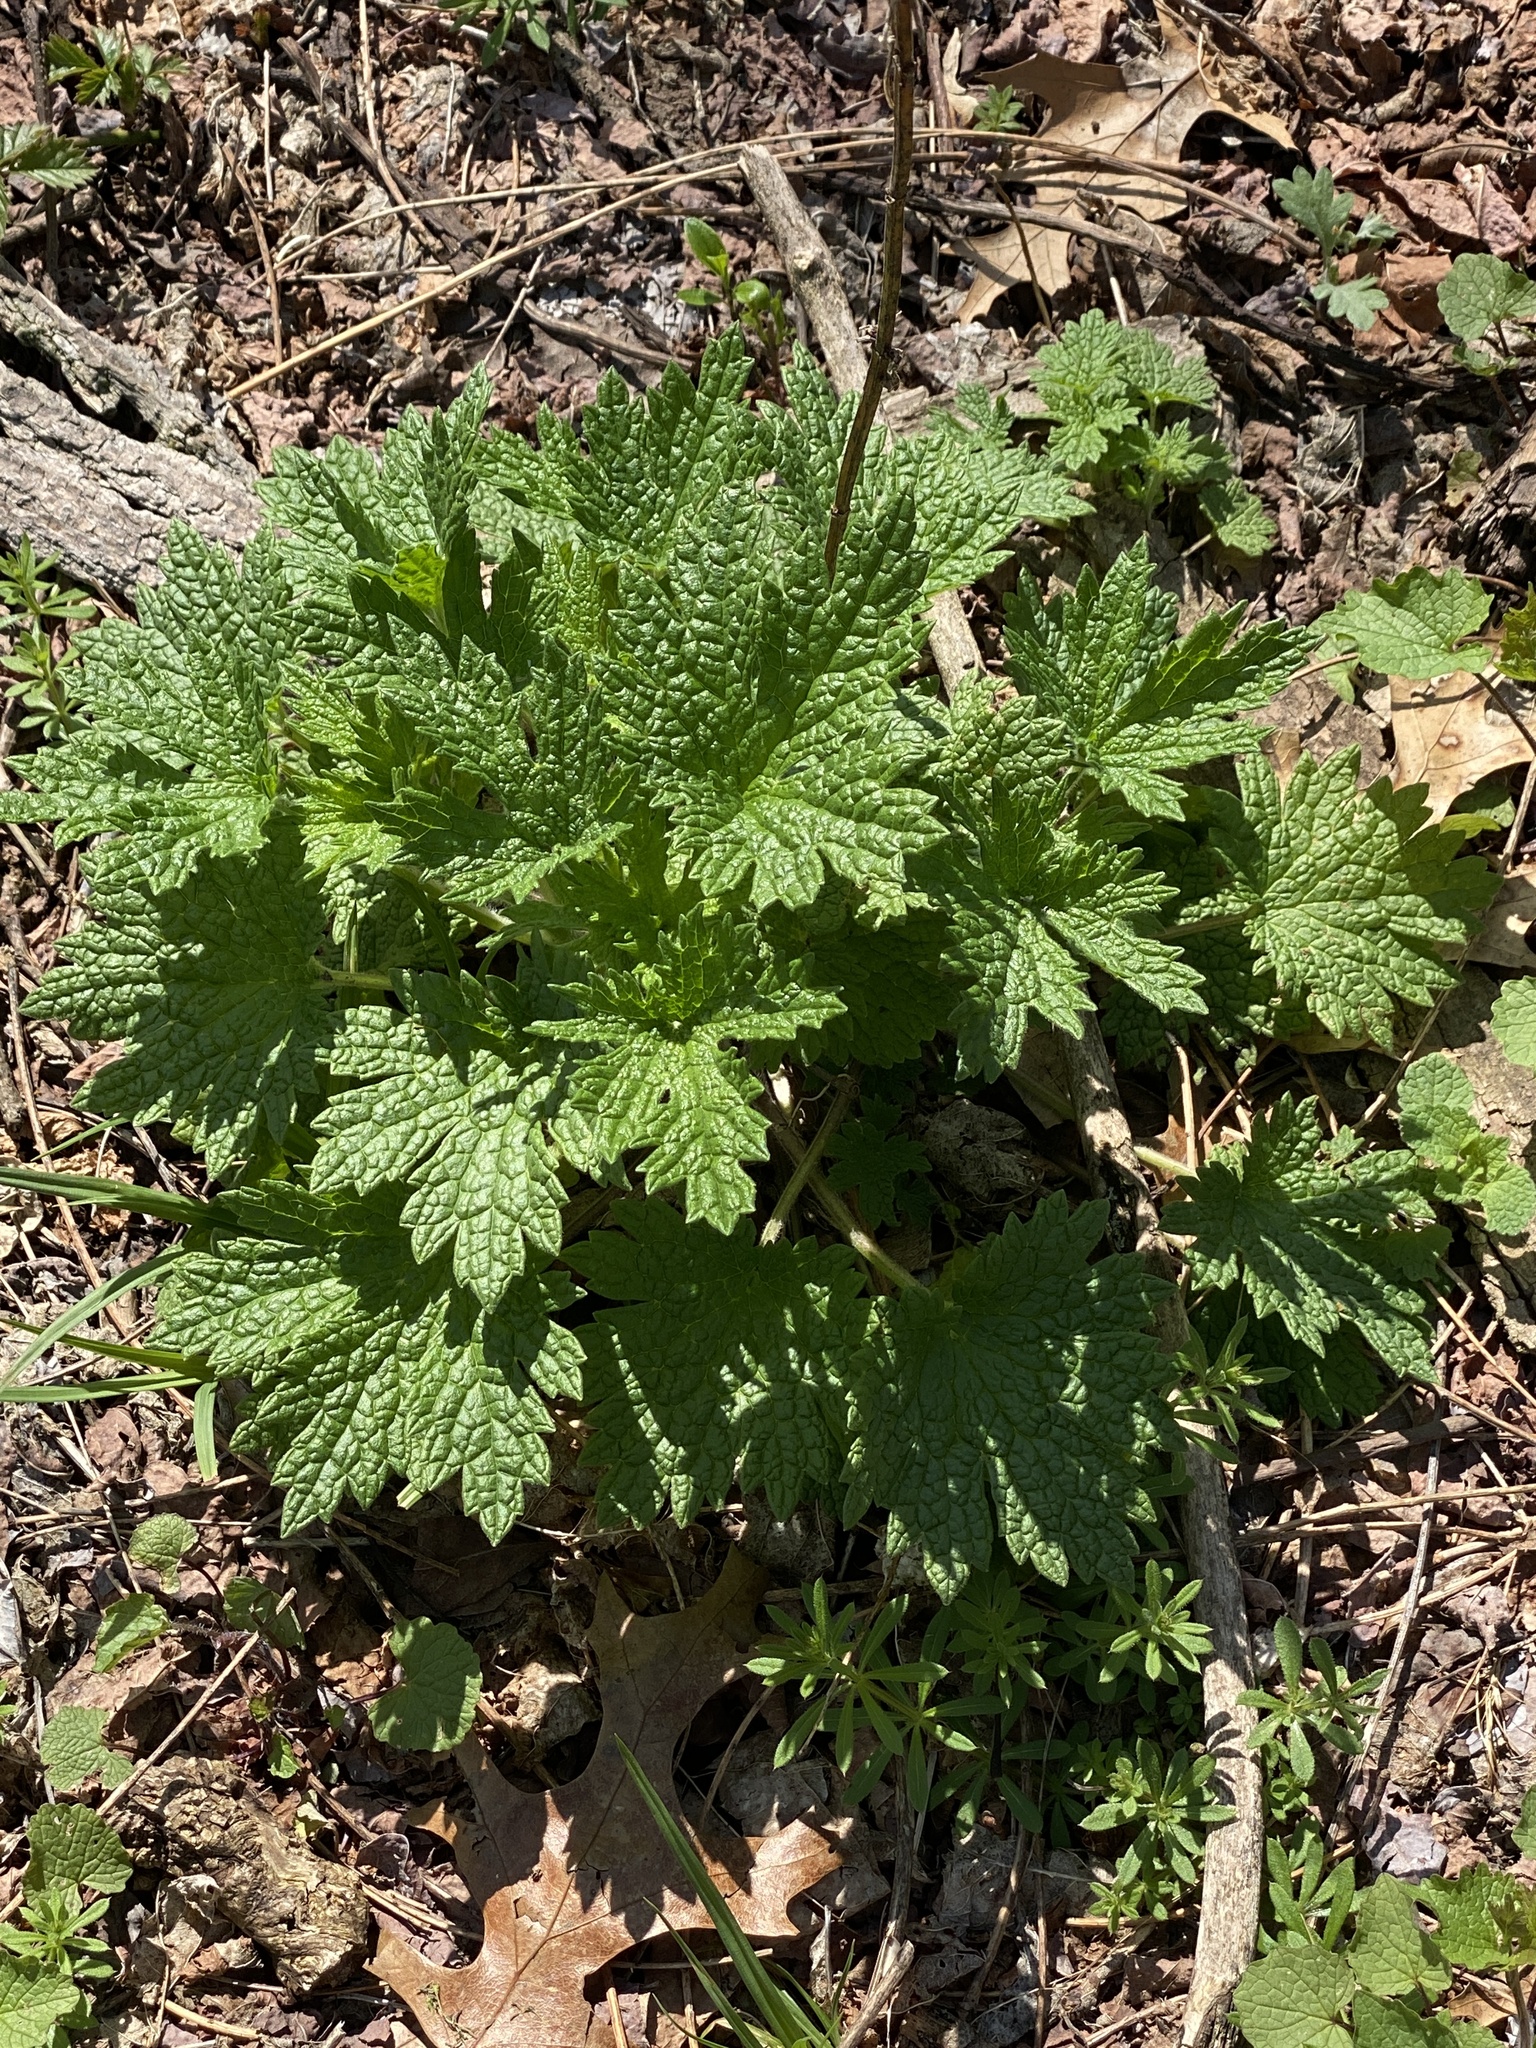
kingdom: Plantae
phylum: Tracheophyta
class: Magnoliopsida
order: Lamiales
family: Lamiaceae
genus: Leonurus
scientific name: Leonurus cardiaca
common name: Motherwort
